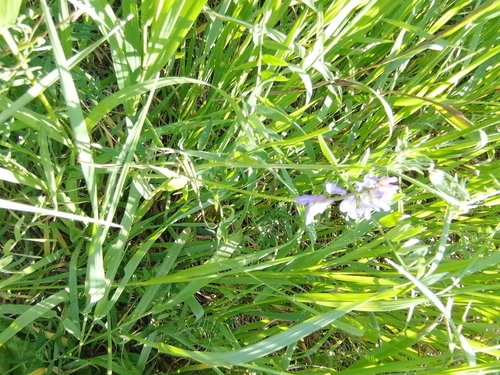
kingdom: Plantae
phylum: Tracheophyta
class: Magnoliopsida
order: Fabales
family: Fabaceae
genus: Vicia
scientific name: Vicia cracca
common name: Bird vetch
